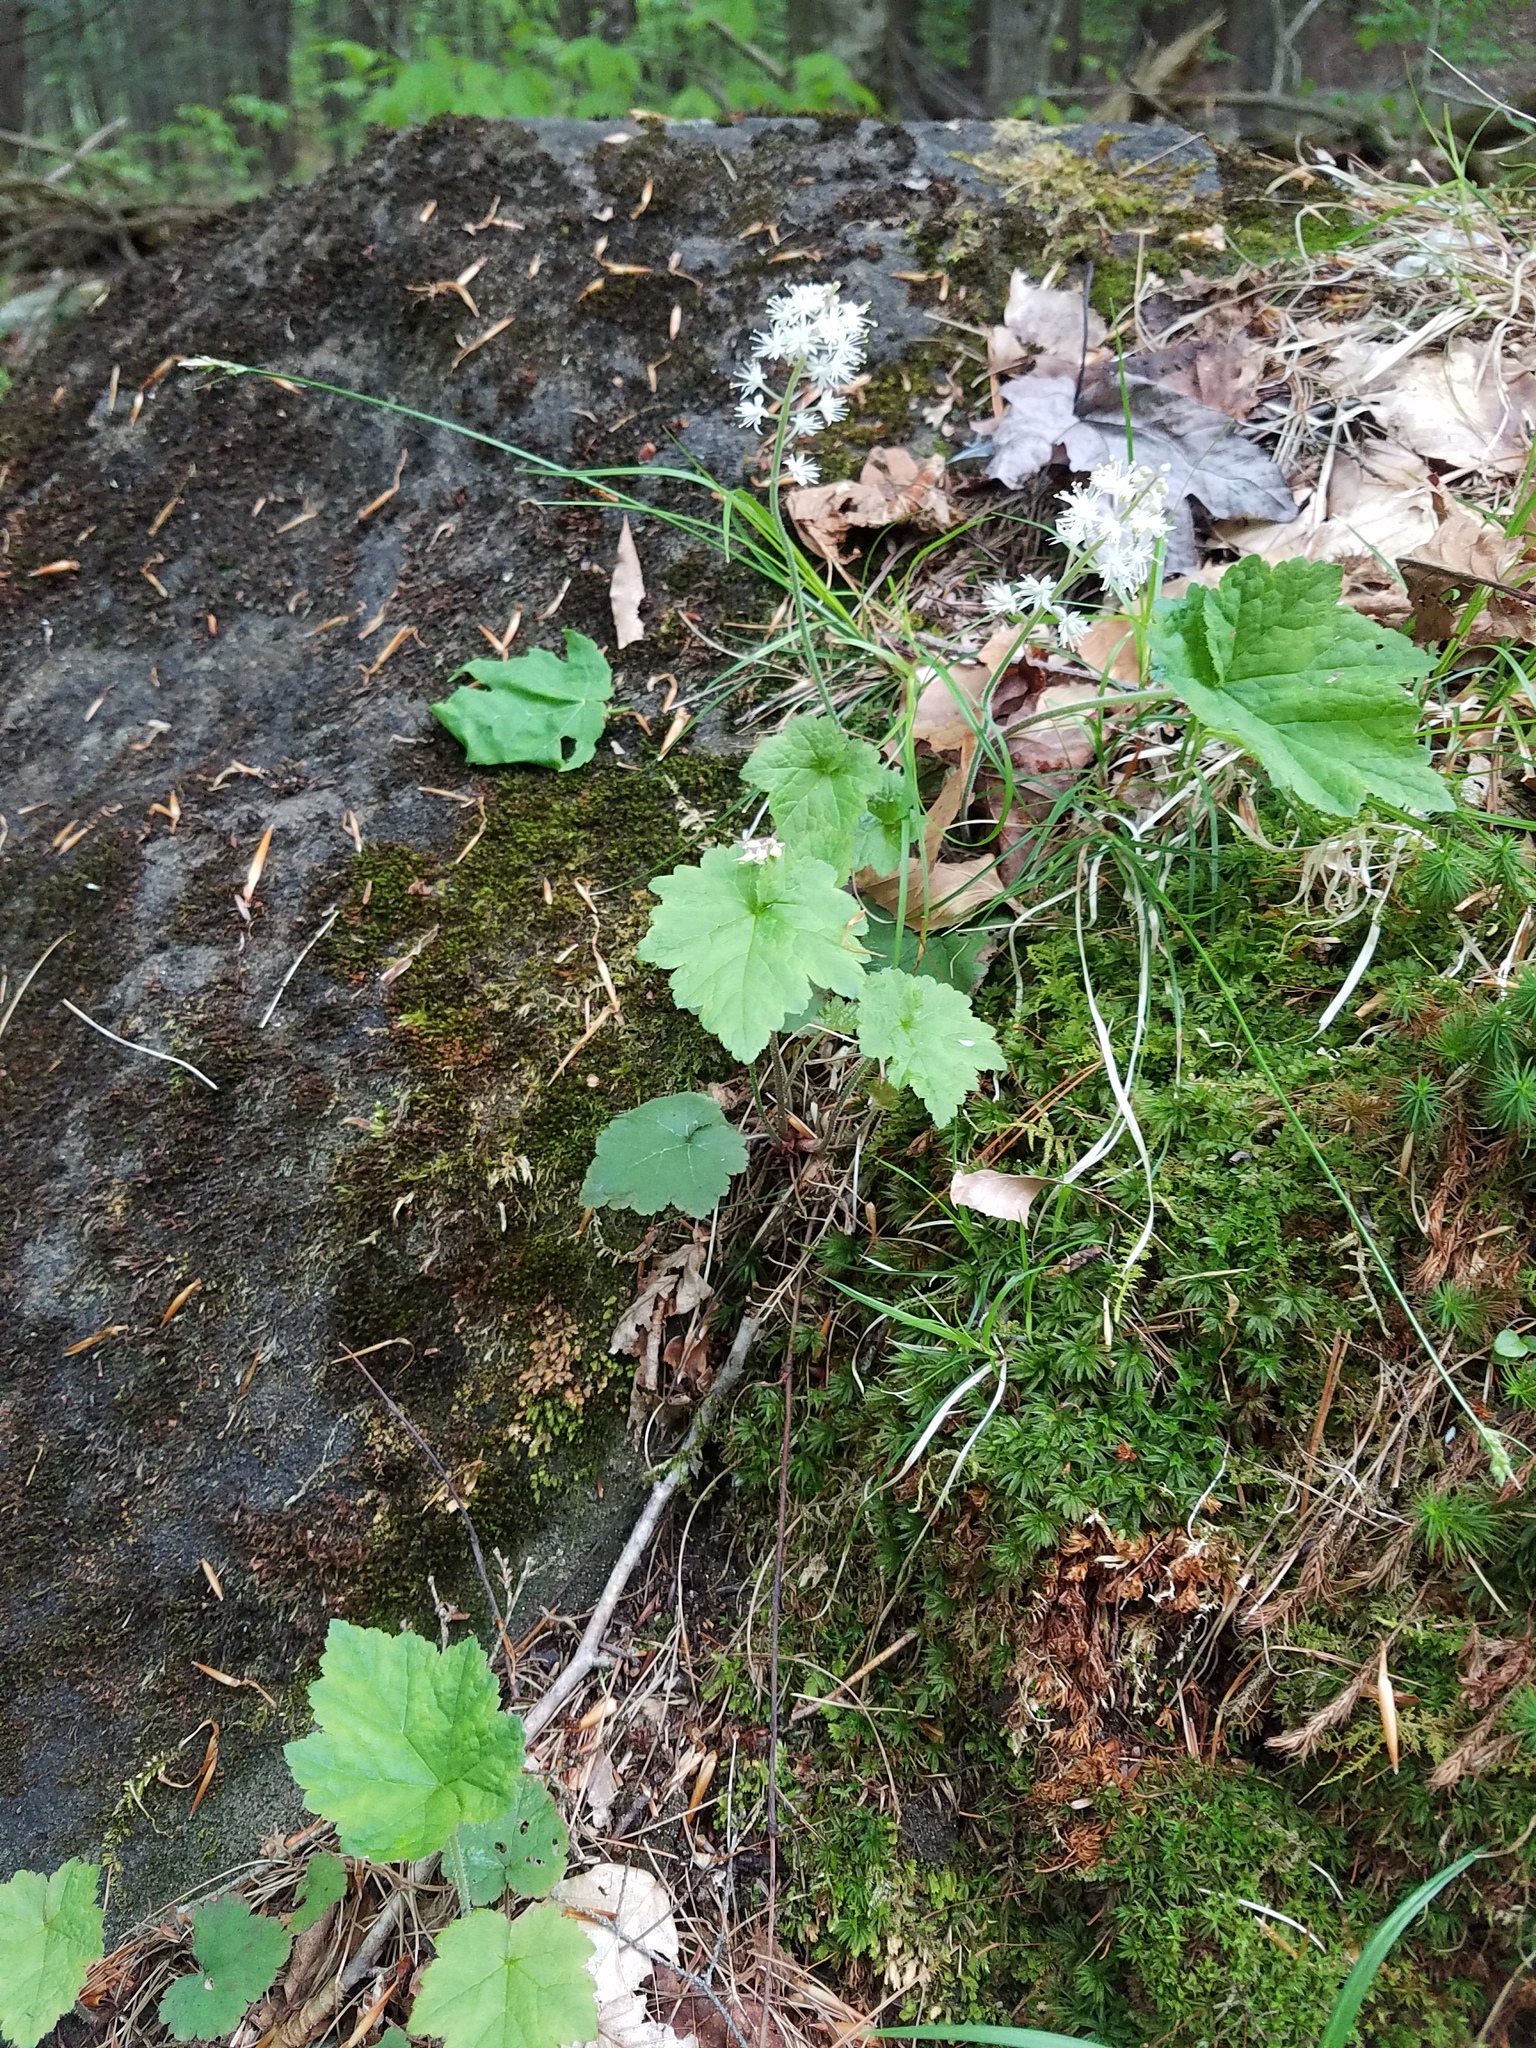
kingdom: Plantae
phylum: Tracheophyta
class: Magnoliopsida
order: Saxifragales
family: Saxifragaceae
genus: Tiarella
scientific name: Tiarella stolonifera
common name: Stoloniferous foamflower
